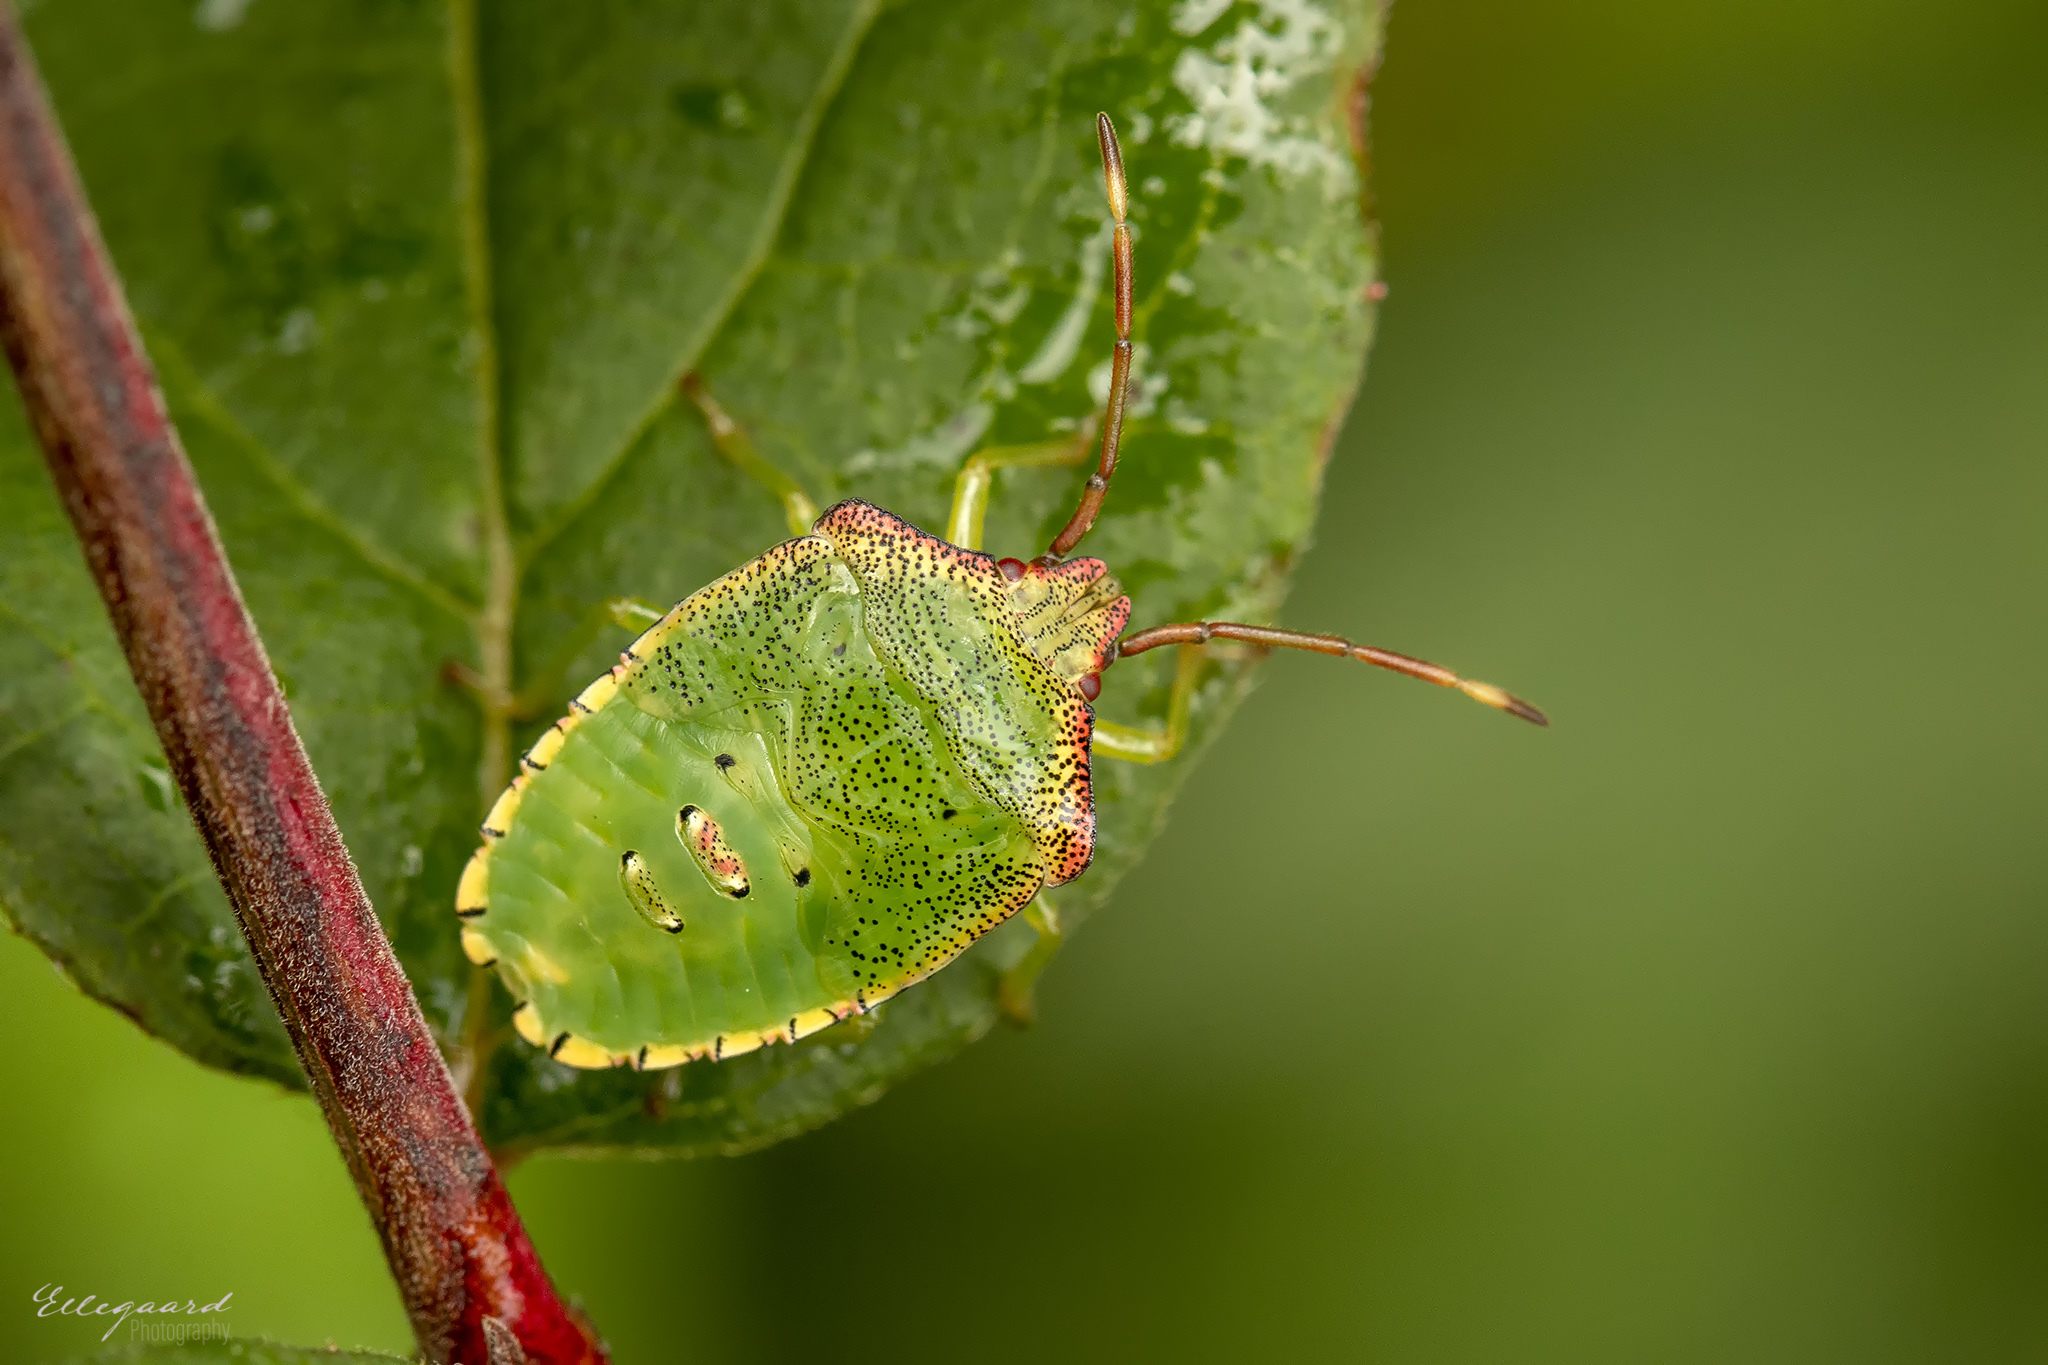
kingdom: Animalia
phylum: Arthropoda
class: Insecta
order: Hemiptera
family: Acanthosomatidae
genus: Acanthosoma
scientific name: Acanthosoma haemorrhoidale
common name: Hawthorn shieldbug
